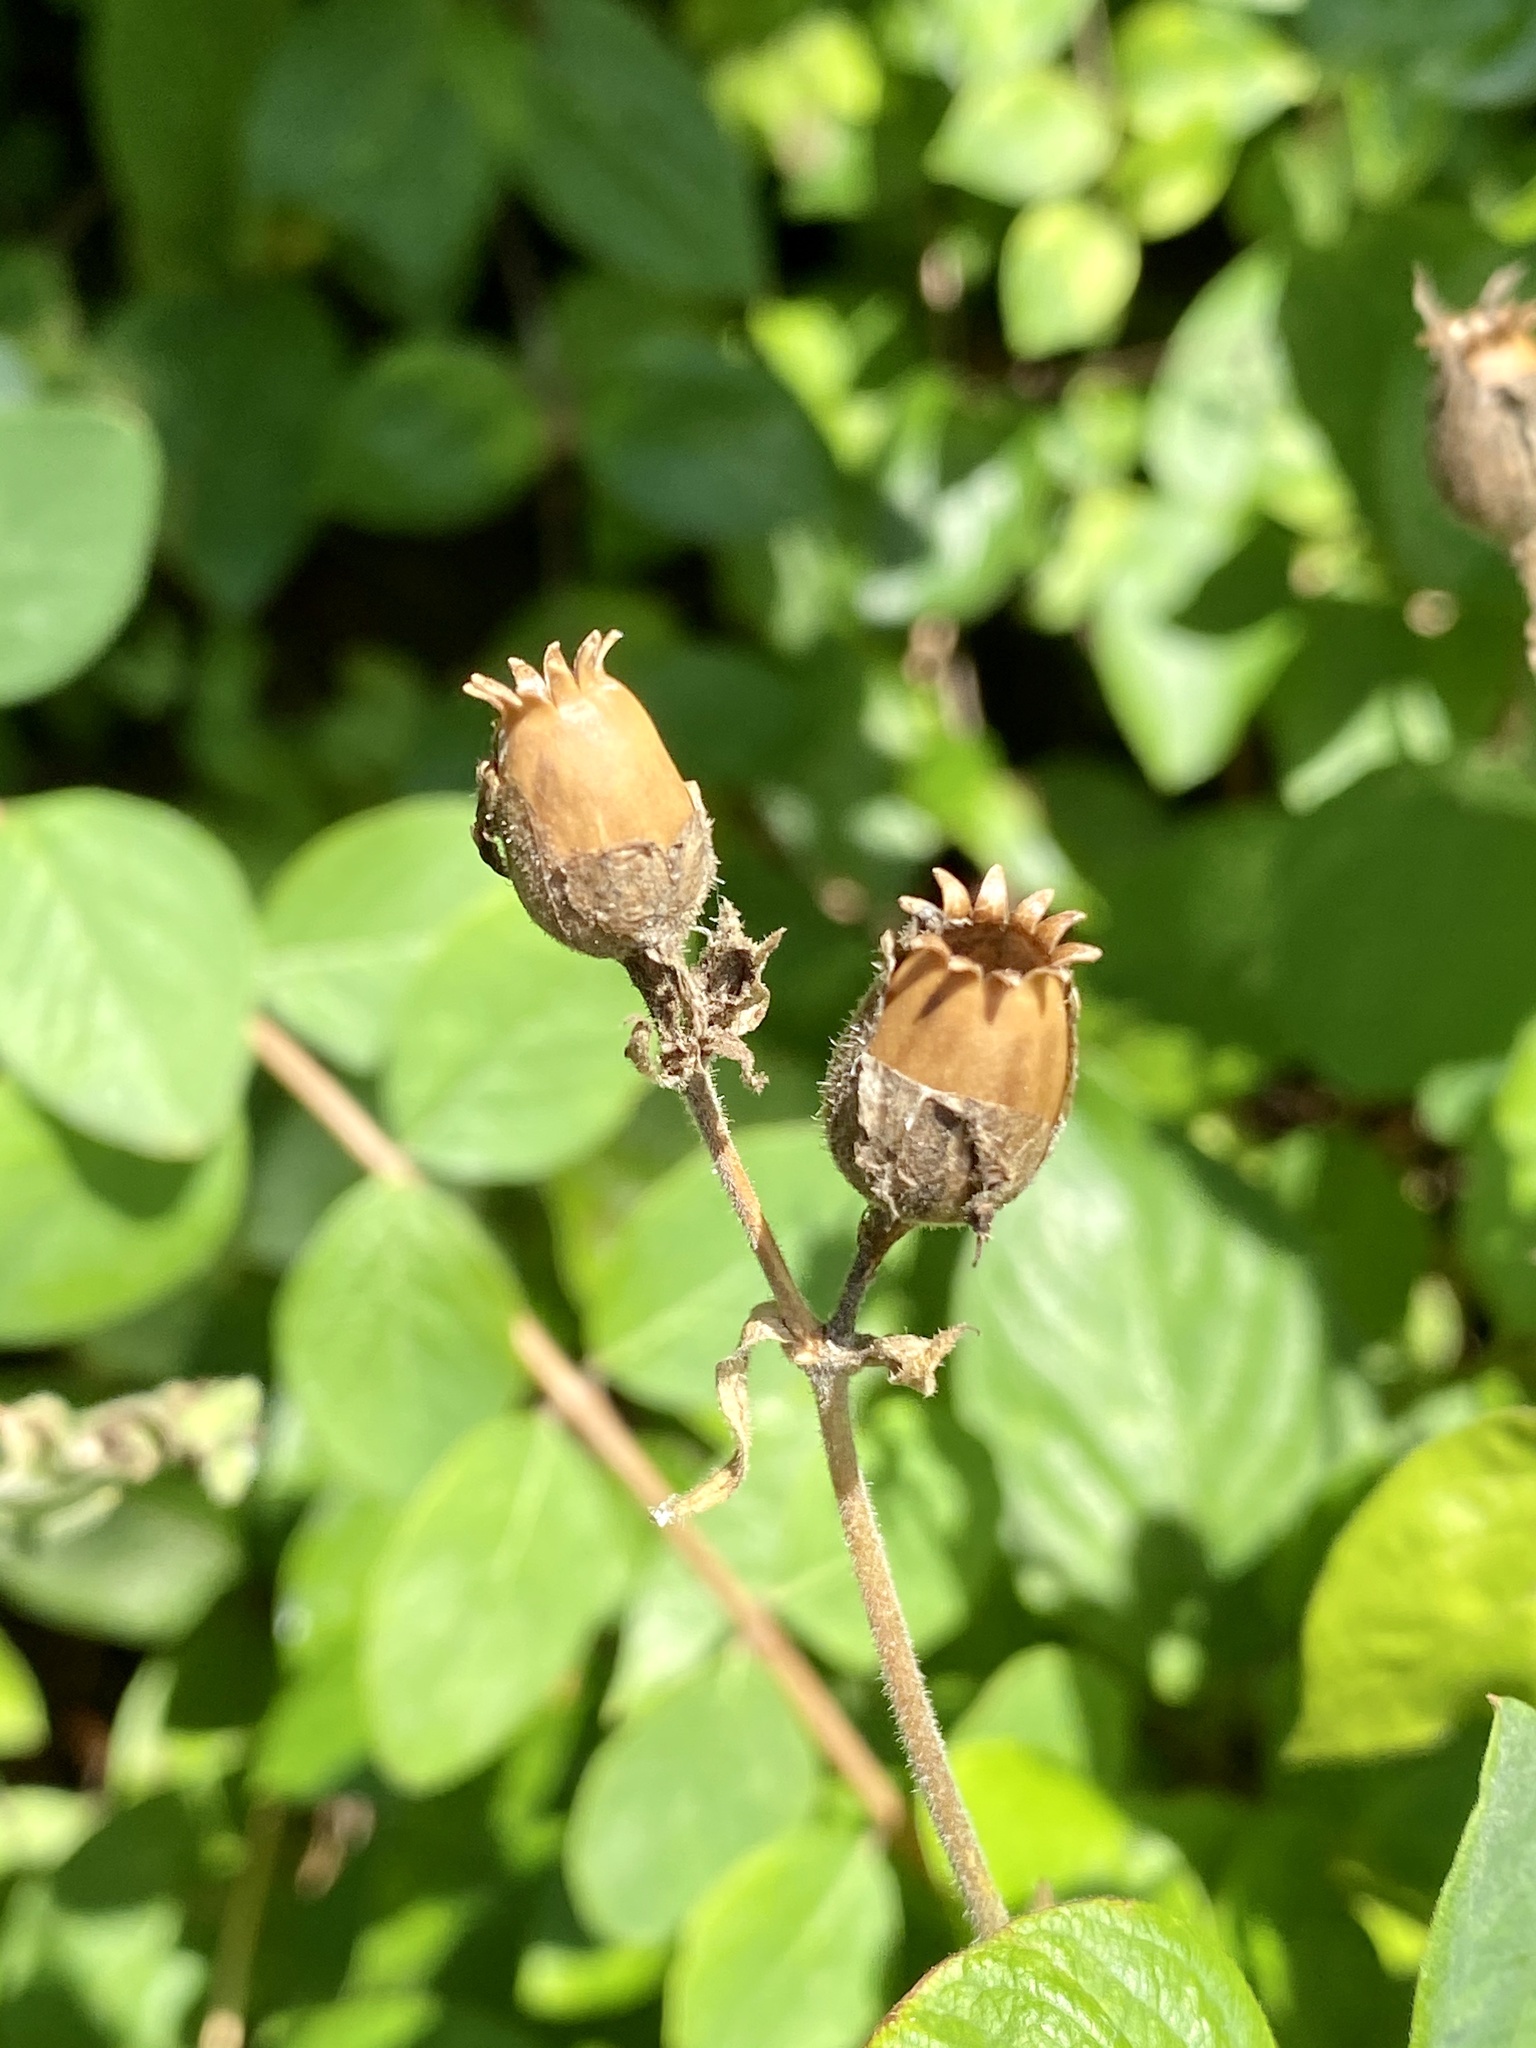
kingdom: Plantae
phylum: Tracheophyta
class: Magnoliopsida
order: Caryophyllales
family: Caryophyllaceae
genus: Silene
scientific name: Silene latifolia
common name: White campion
